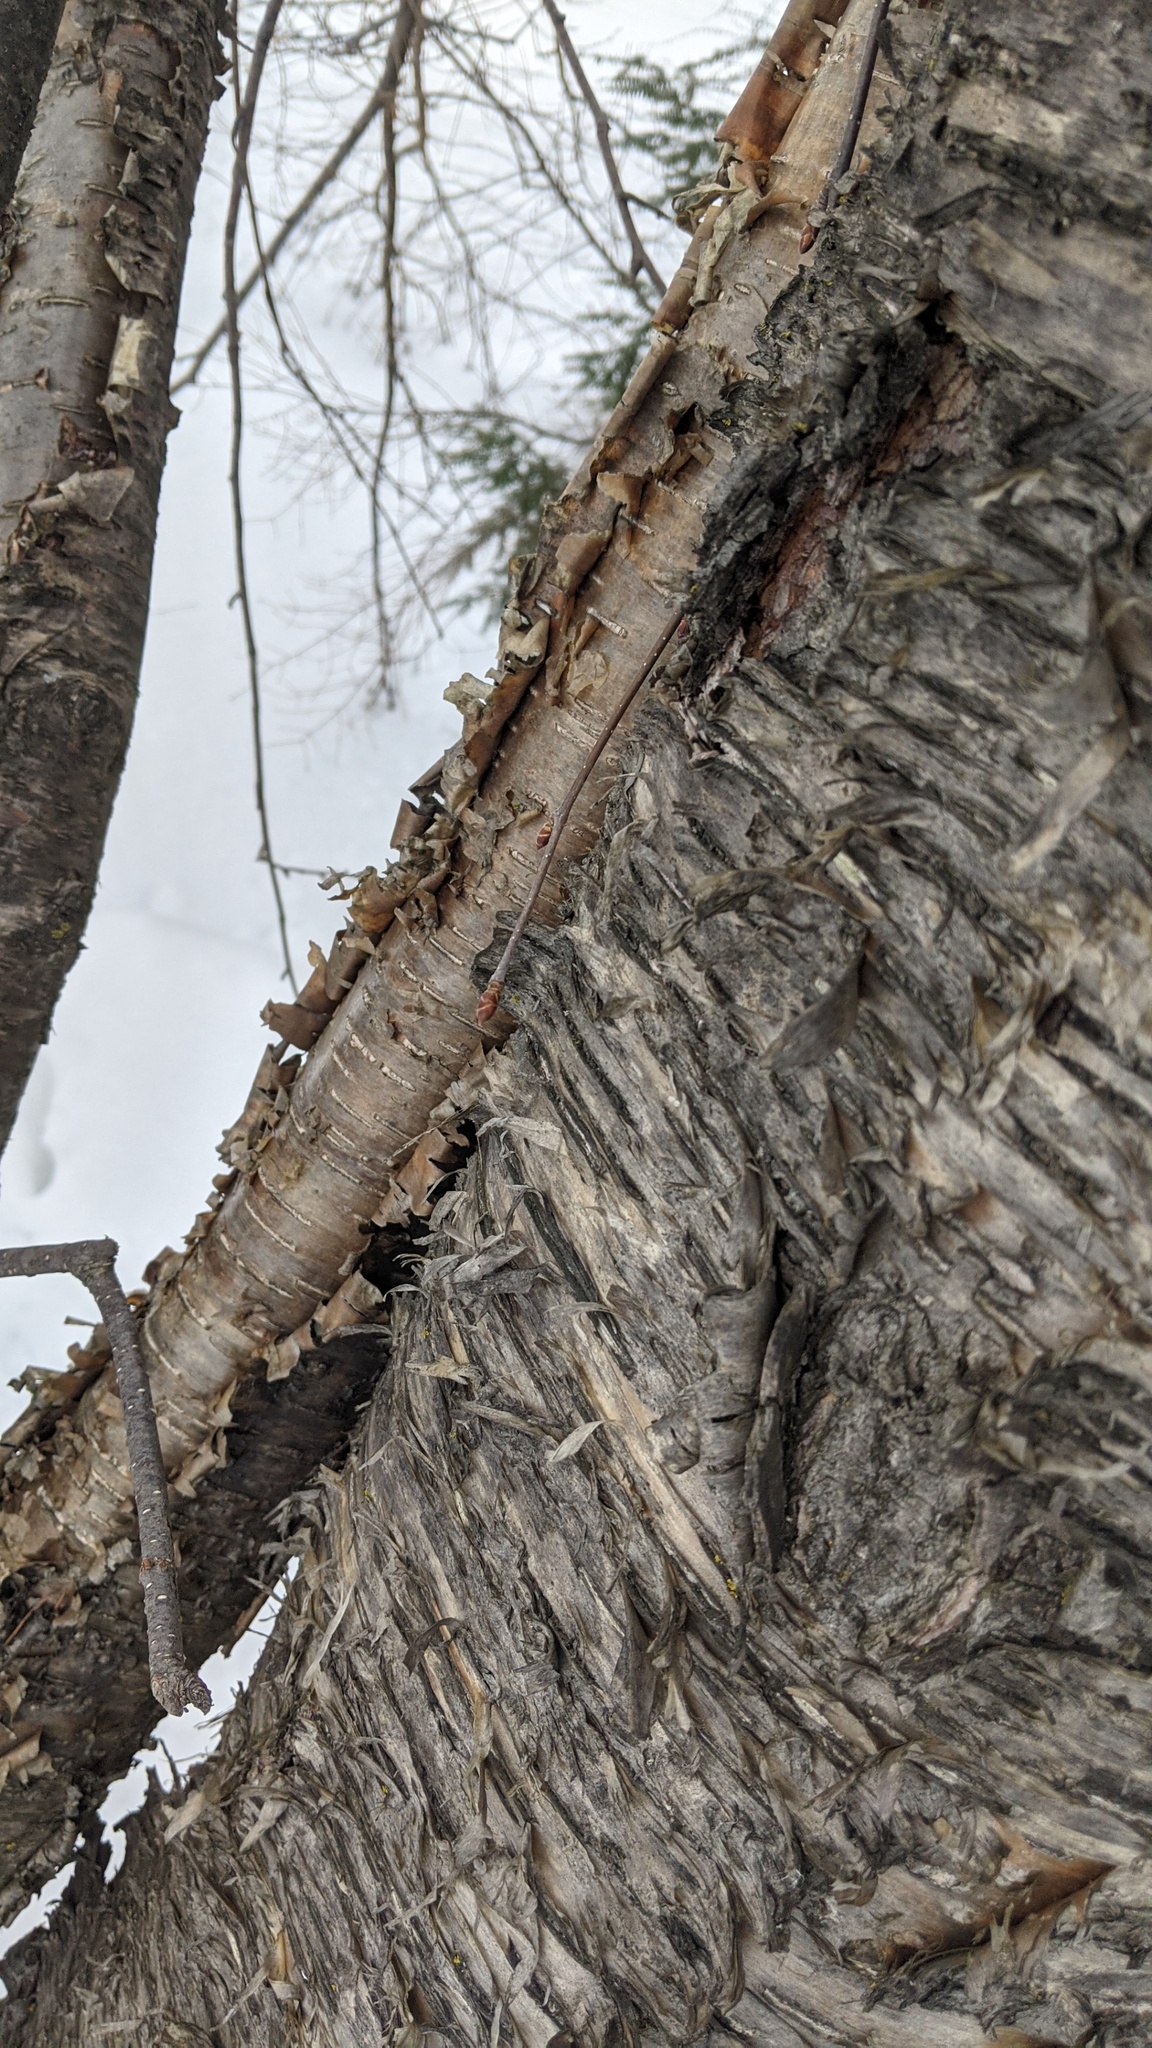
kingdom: Plantae
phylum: Tracheophyta
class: Magnoliopsida
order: Fagales
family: Betulaceae
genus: Betula
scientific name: Betula alleghaniensis
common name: Yellow birch
